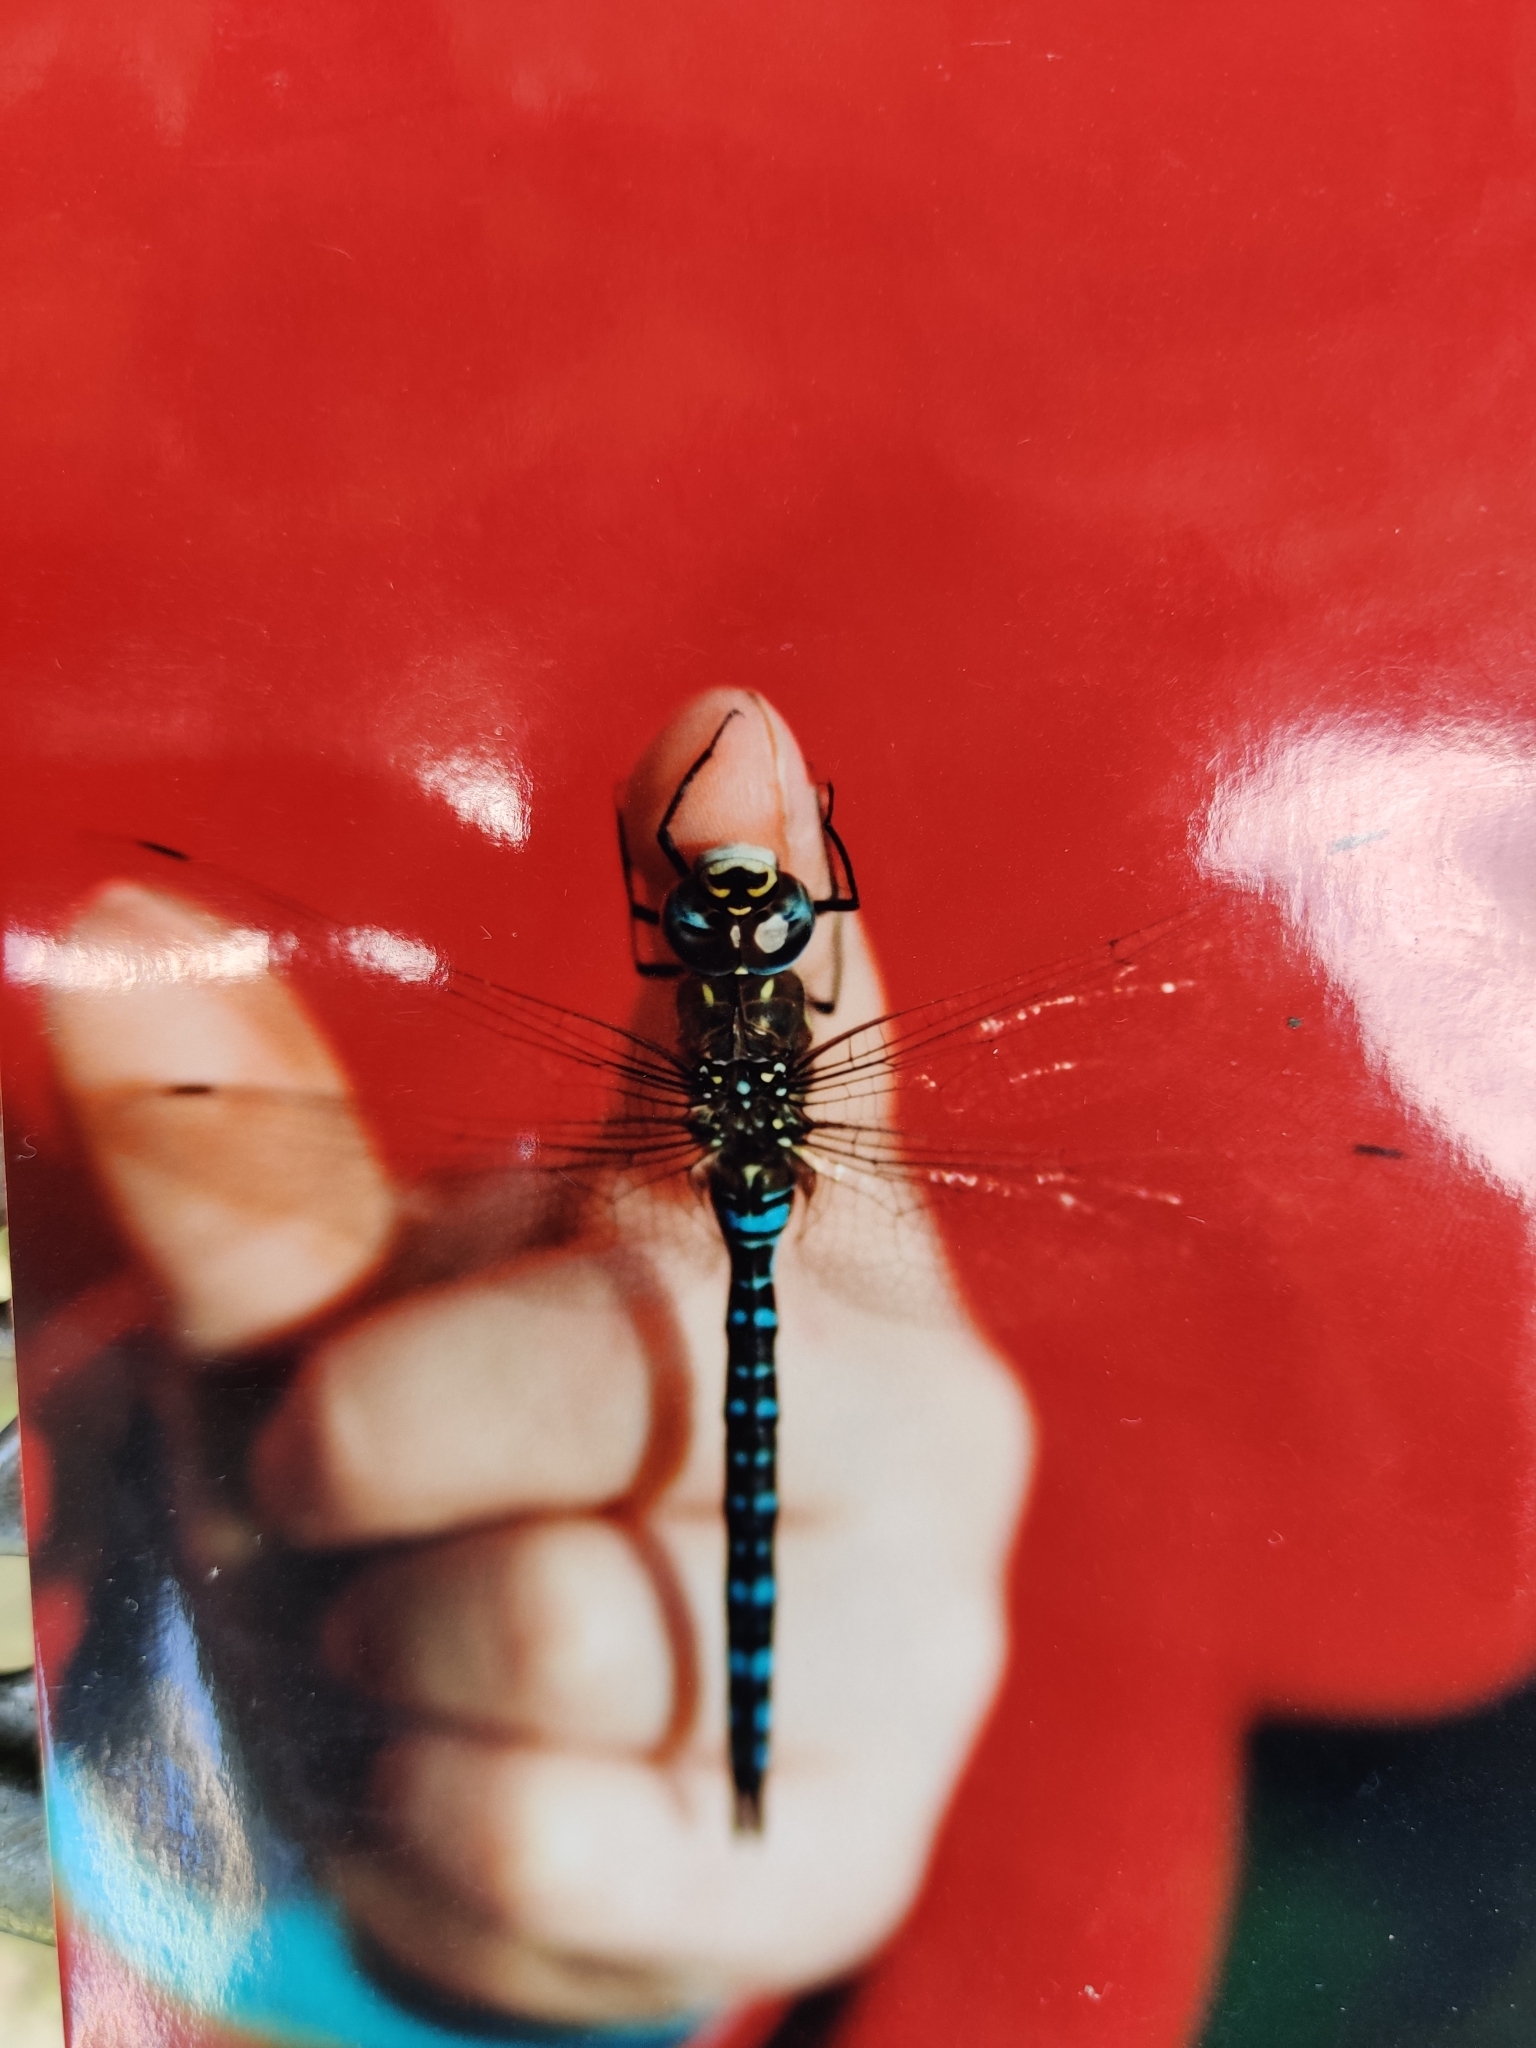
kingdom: Animalia
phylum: Arthropoda
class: Insecta
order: Odonata
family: Aeshnidae
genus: Aeshna
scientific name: Aeshna mixta
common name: Migrant hawker
